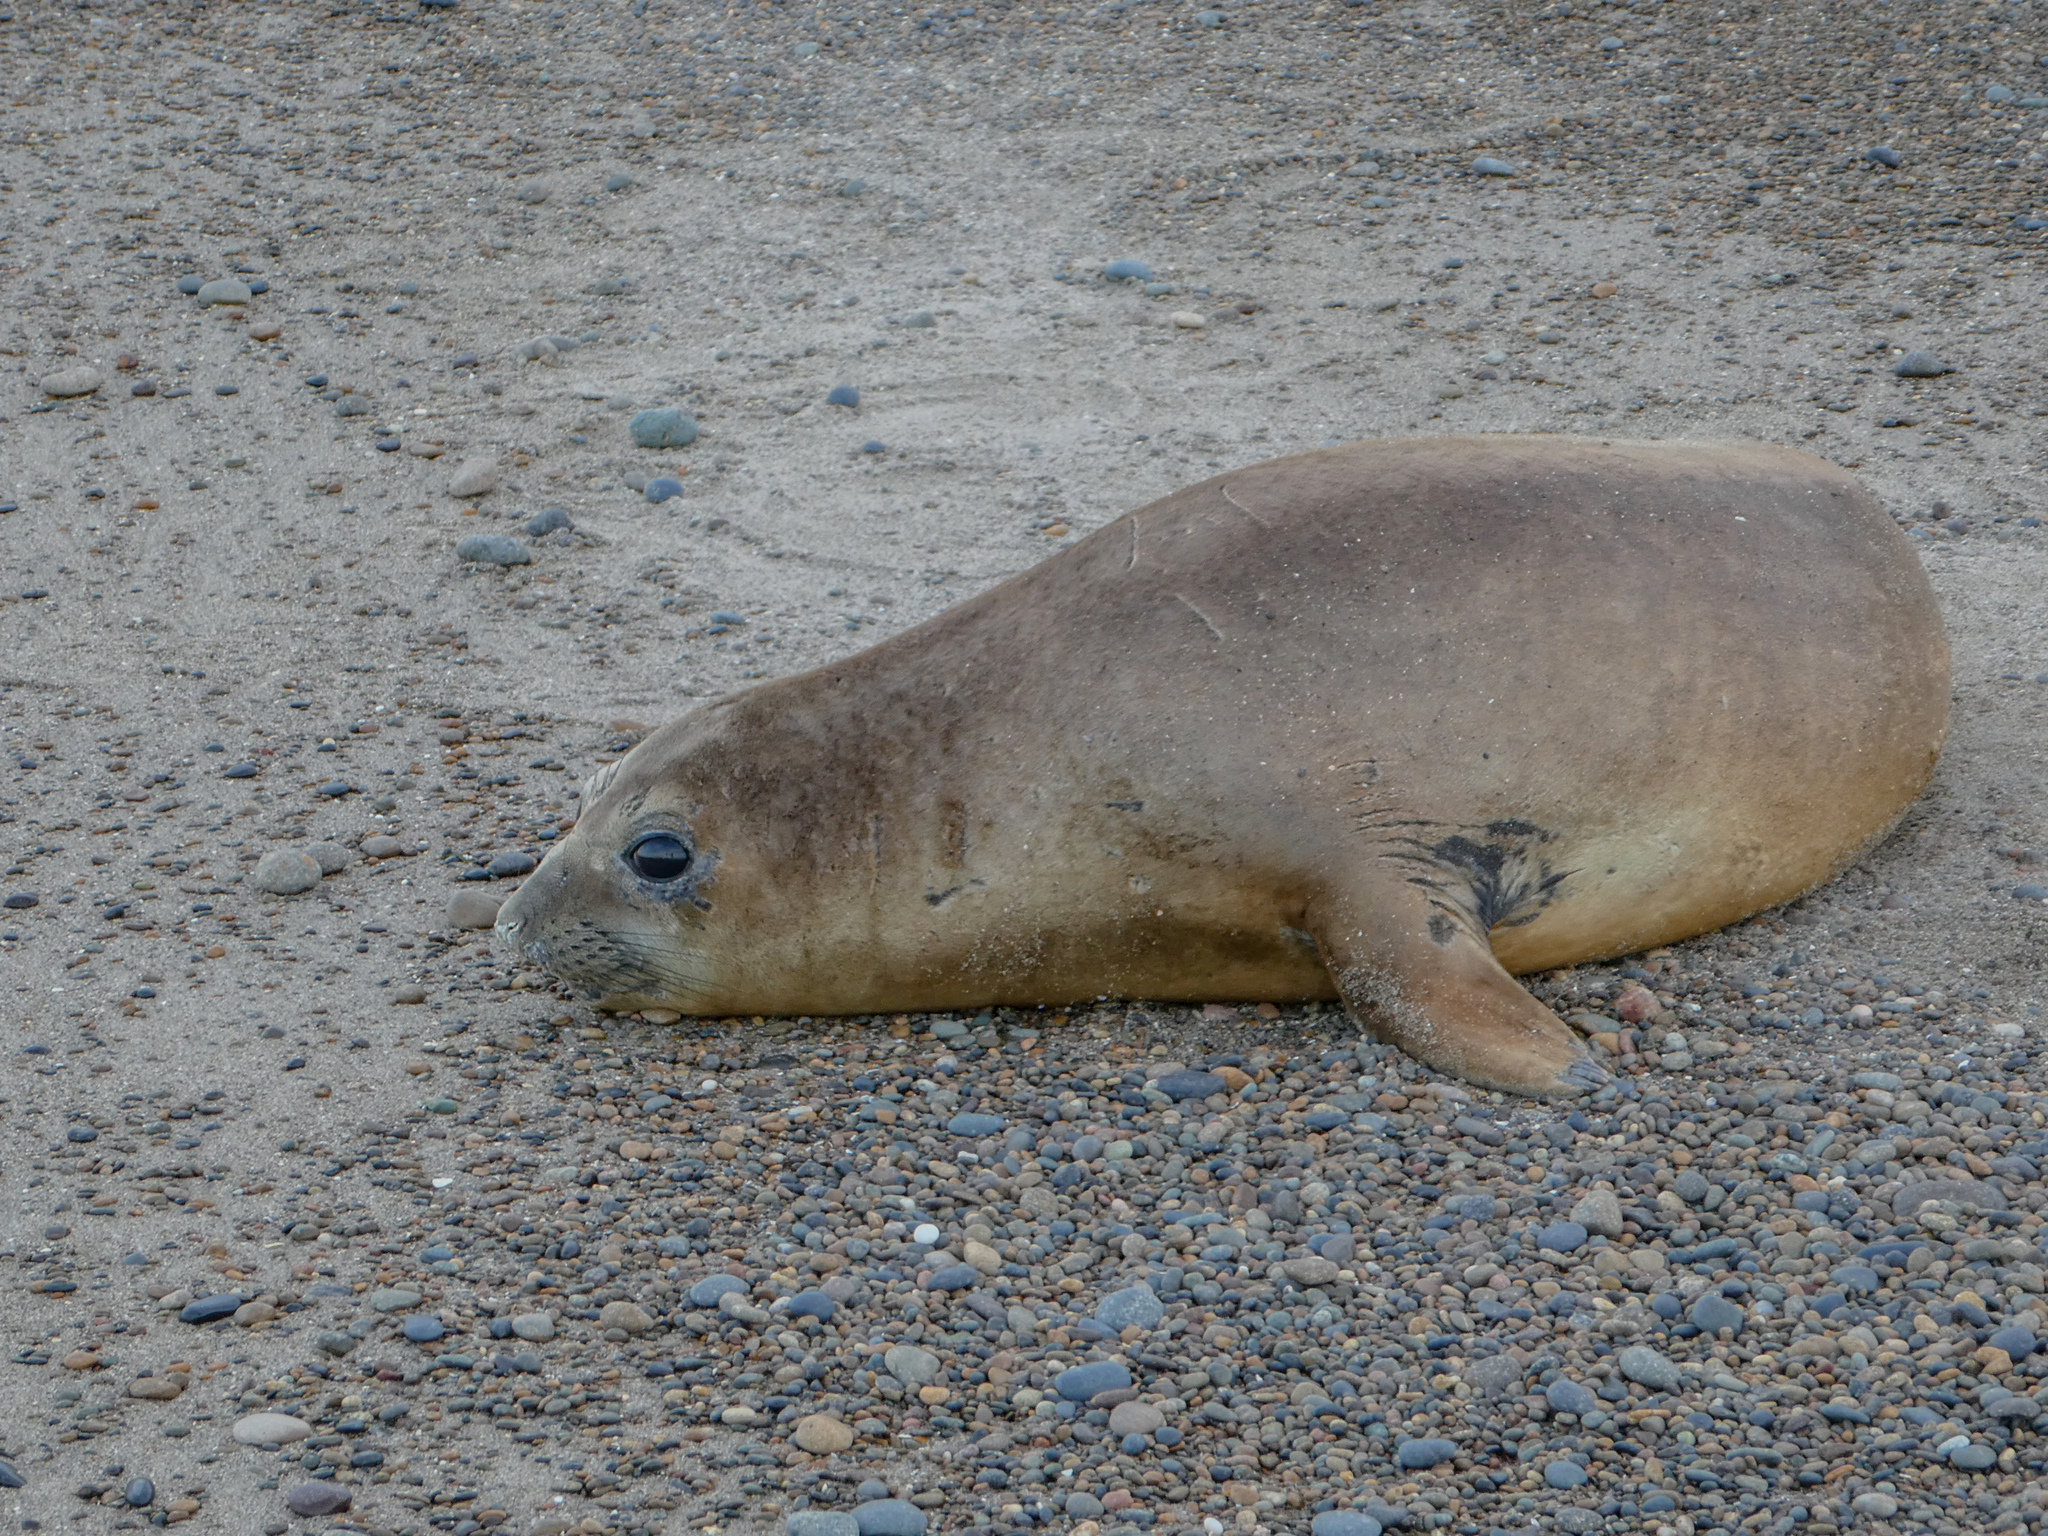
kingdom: Animalia
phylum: Chordata
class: Mammalia
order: Carnivora
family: Phocidae
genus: Mirounga
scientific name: Mirounga leonina
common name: Southern elephant seal
